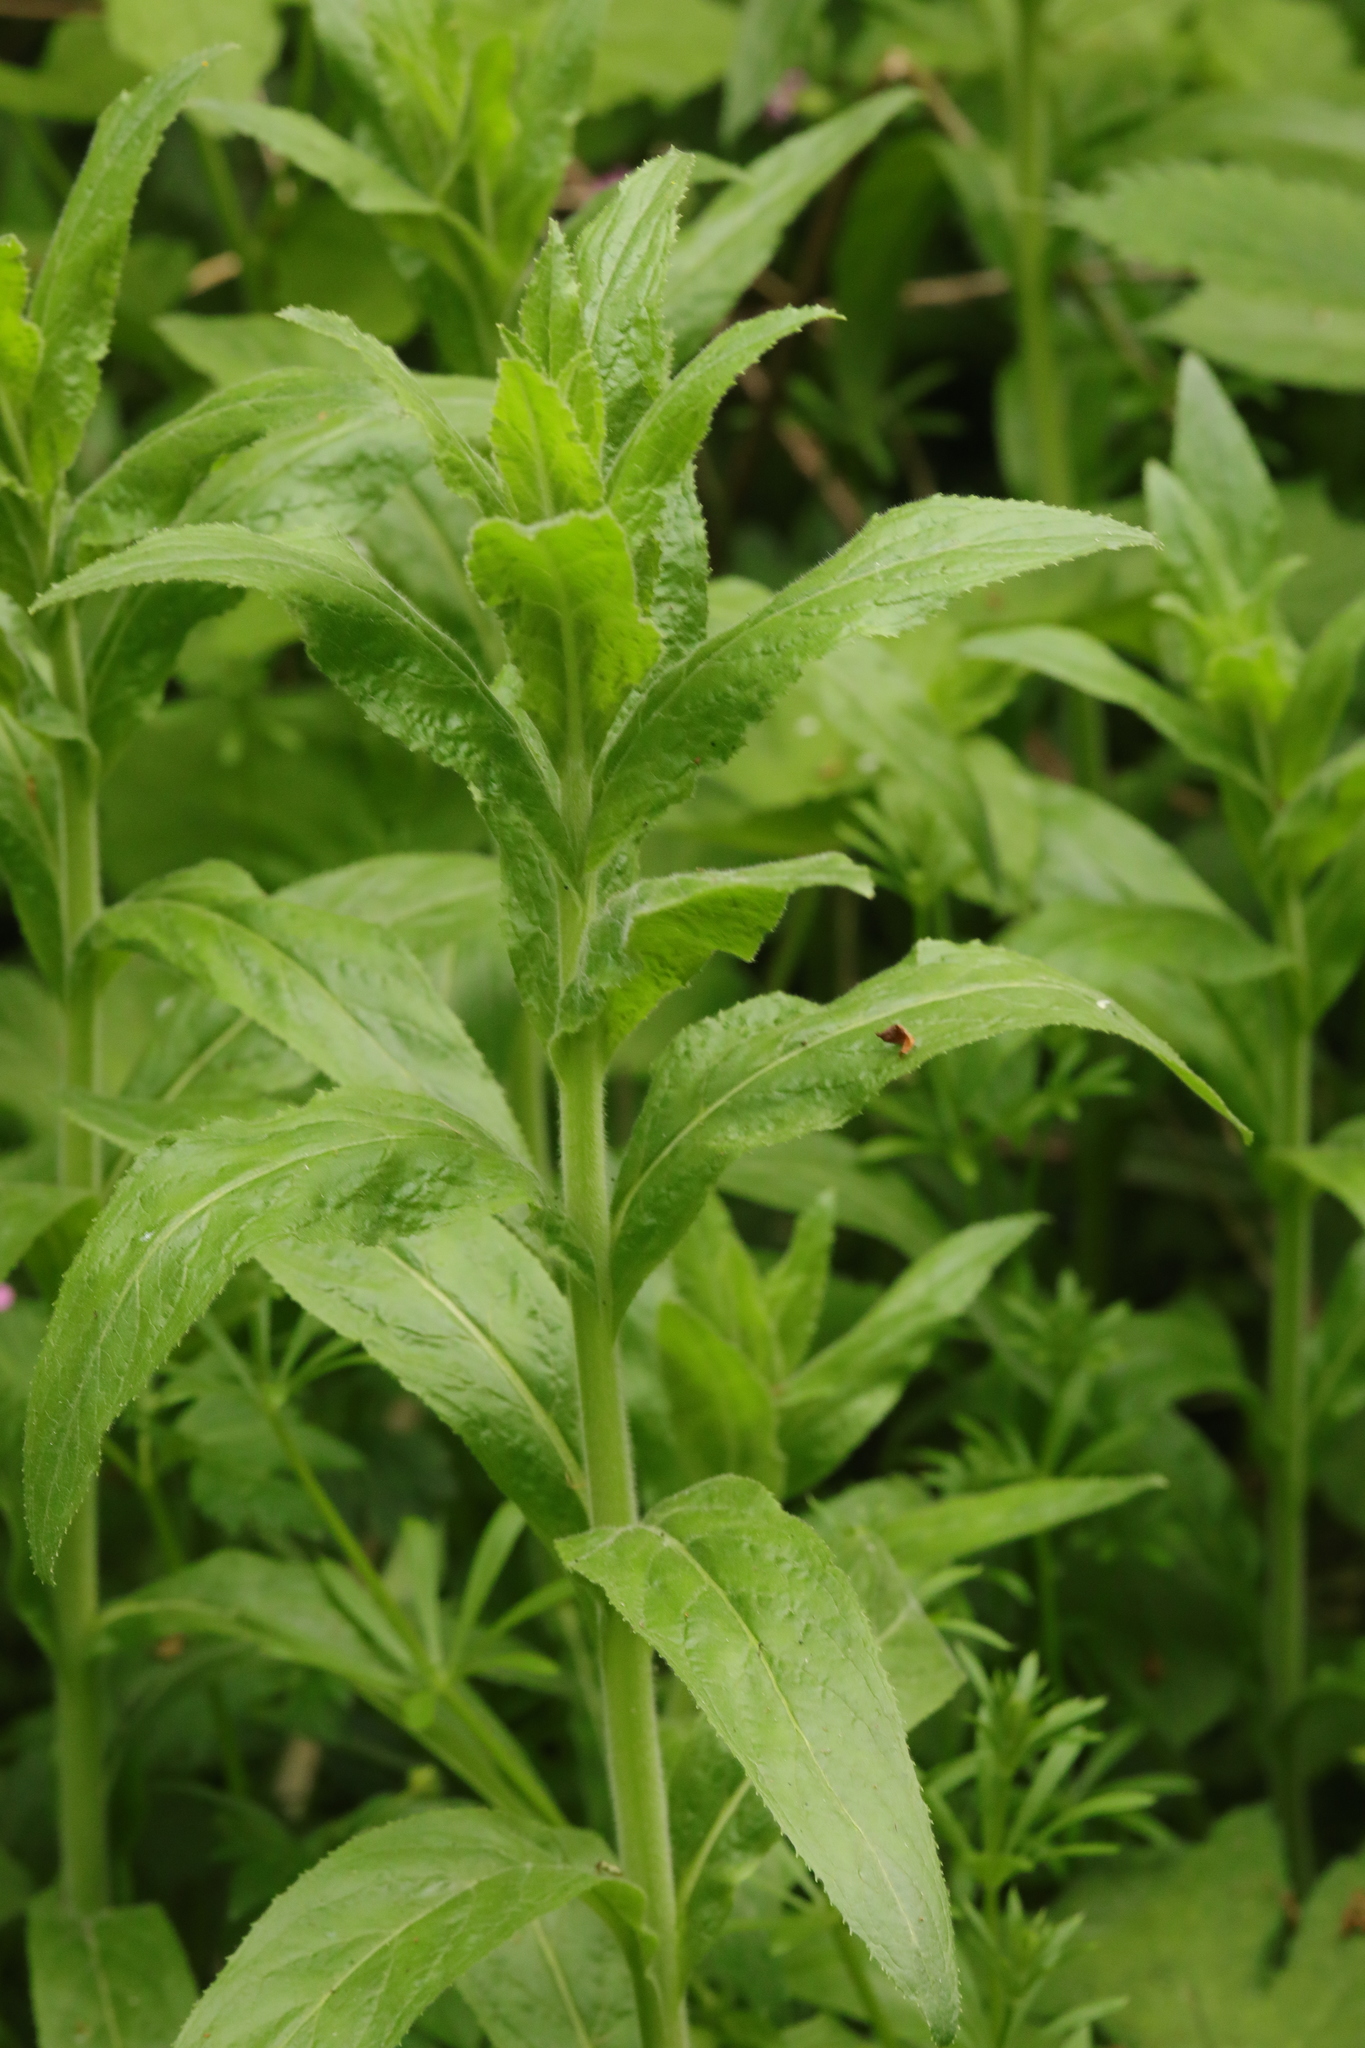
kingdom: Plantae
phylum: Tracheophyta
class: Magnoliopsida
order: Myrtales
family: Onagraceae
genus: Epilobium
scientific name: Epilobium hirsutum
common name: Great willowherb
